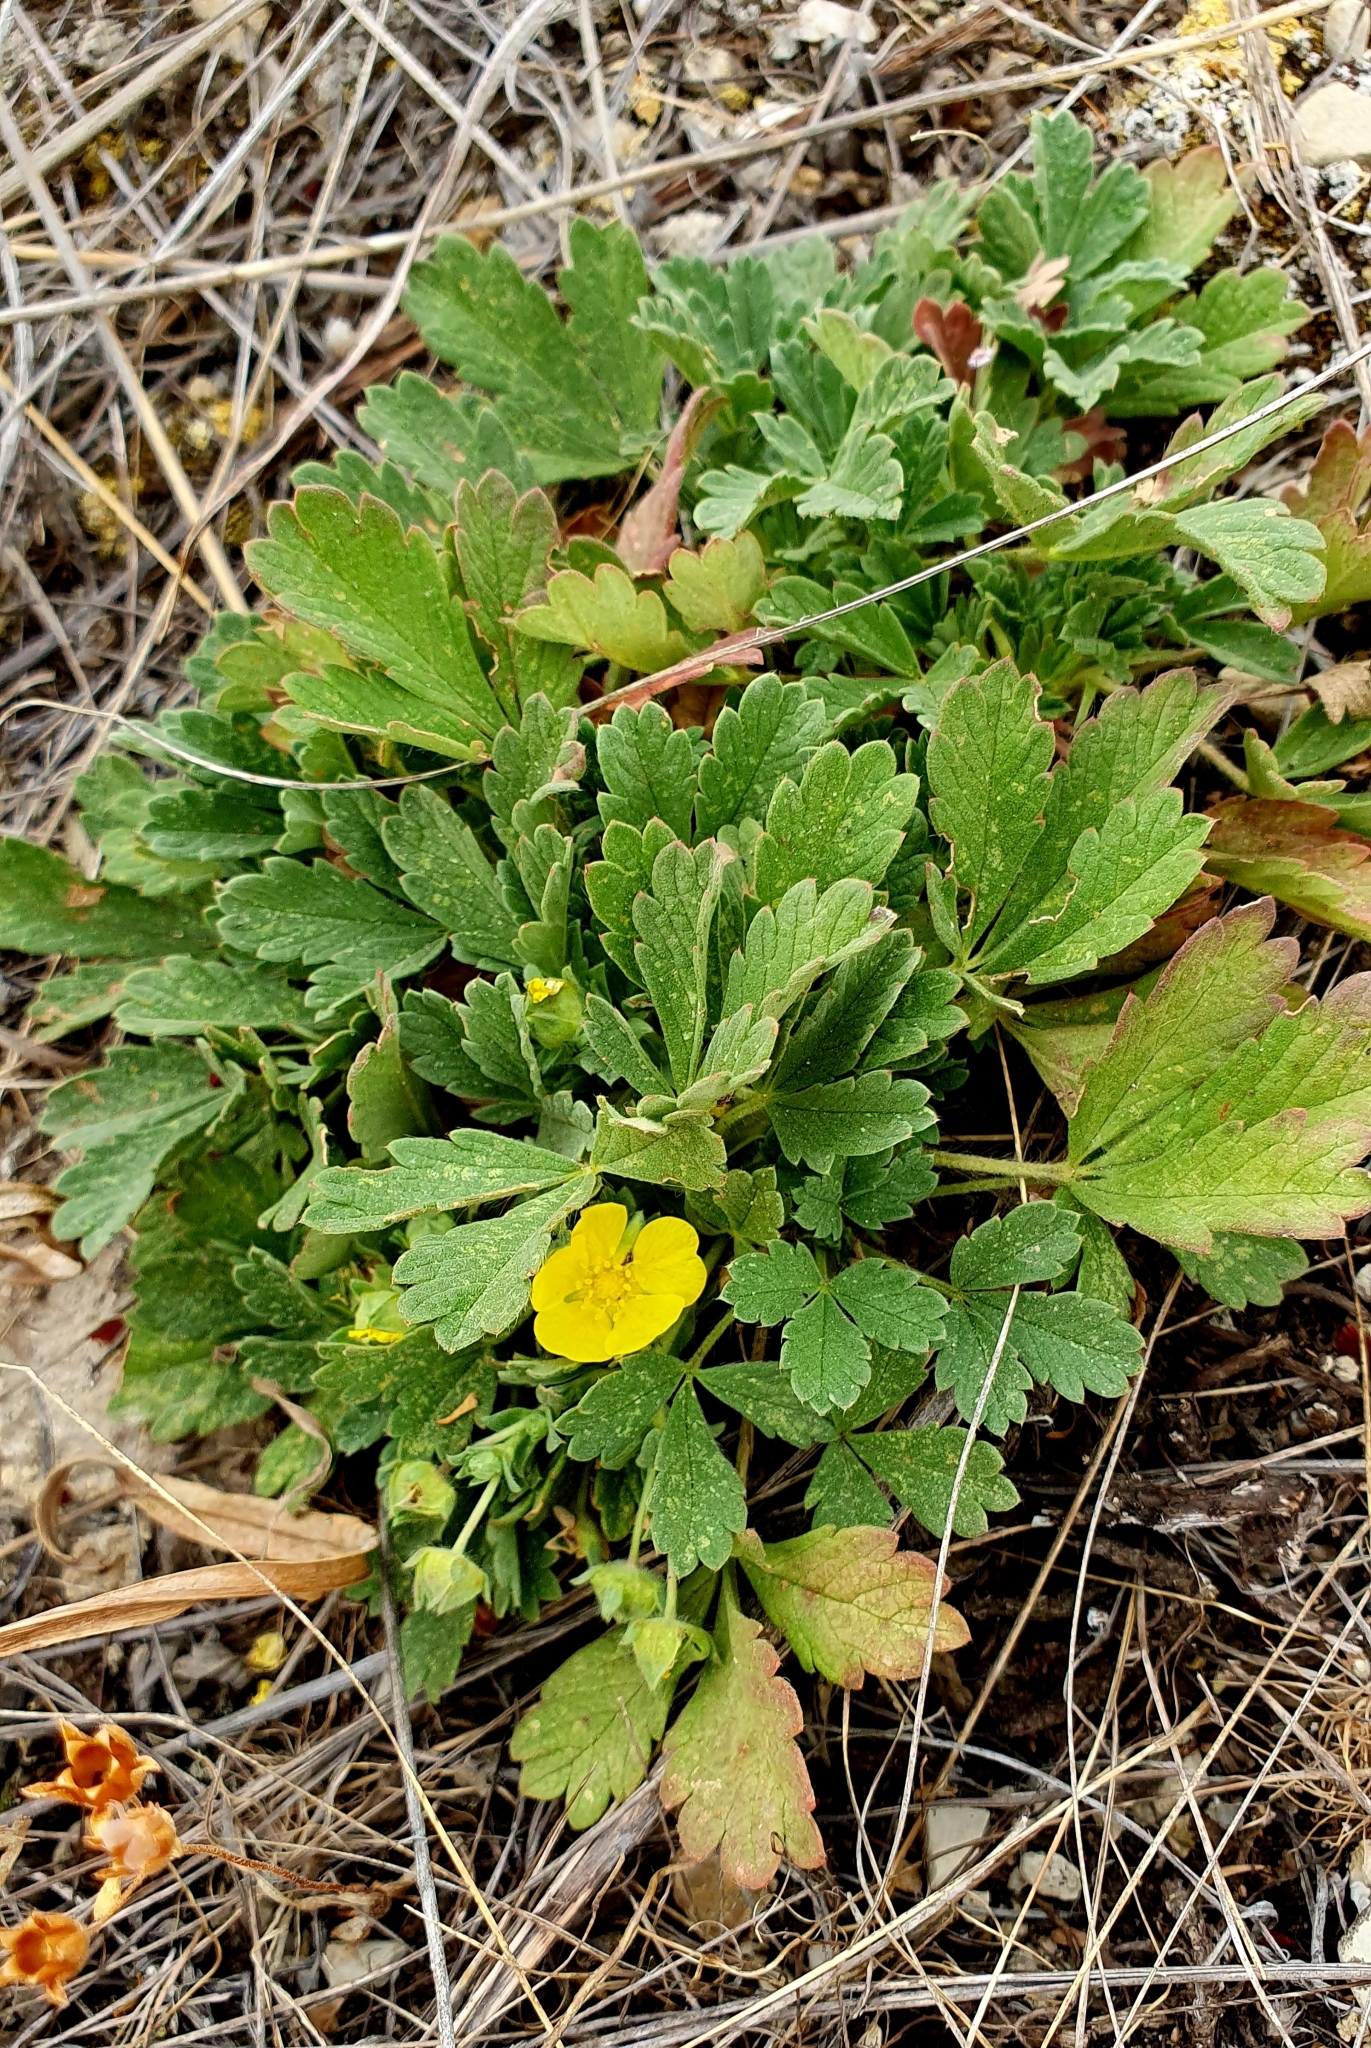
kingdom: Plantae
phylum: Tracheophyta
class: Magnoliopsida
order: Rosales
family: Rosaceae
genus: Potentilla
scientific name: Potentilla incana
